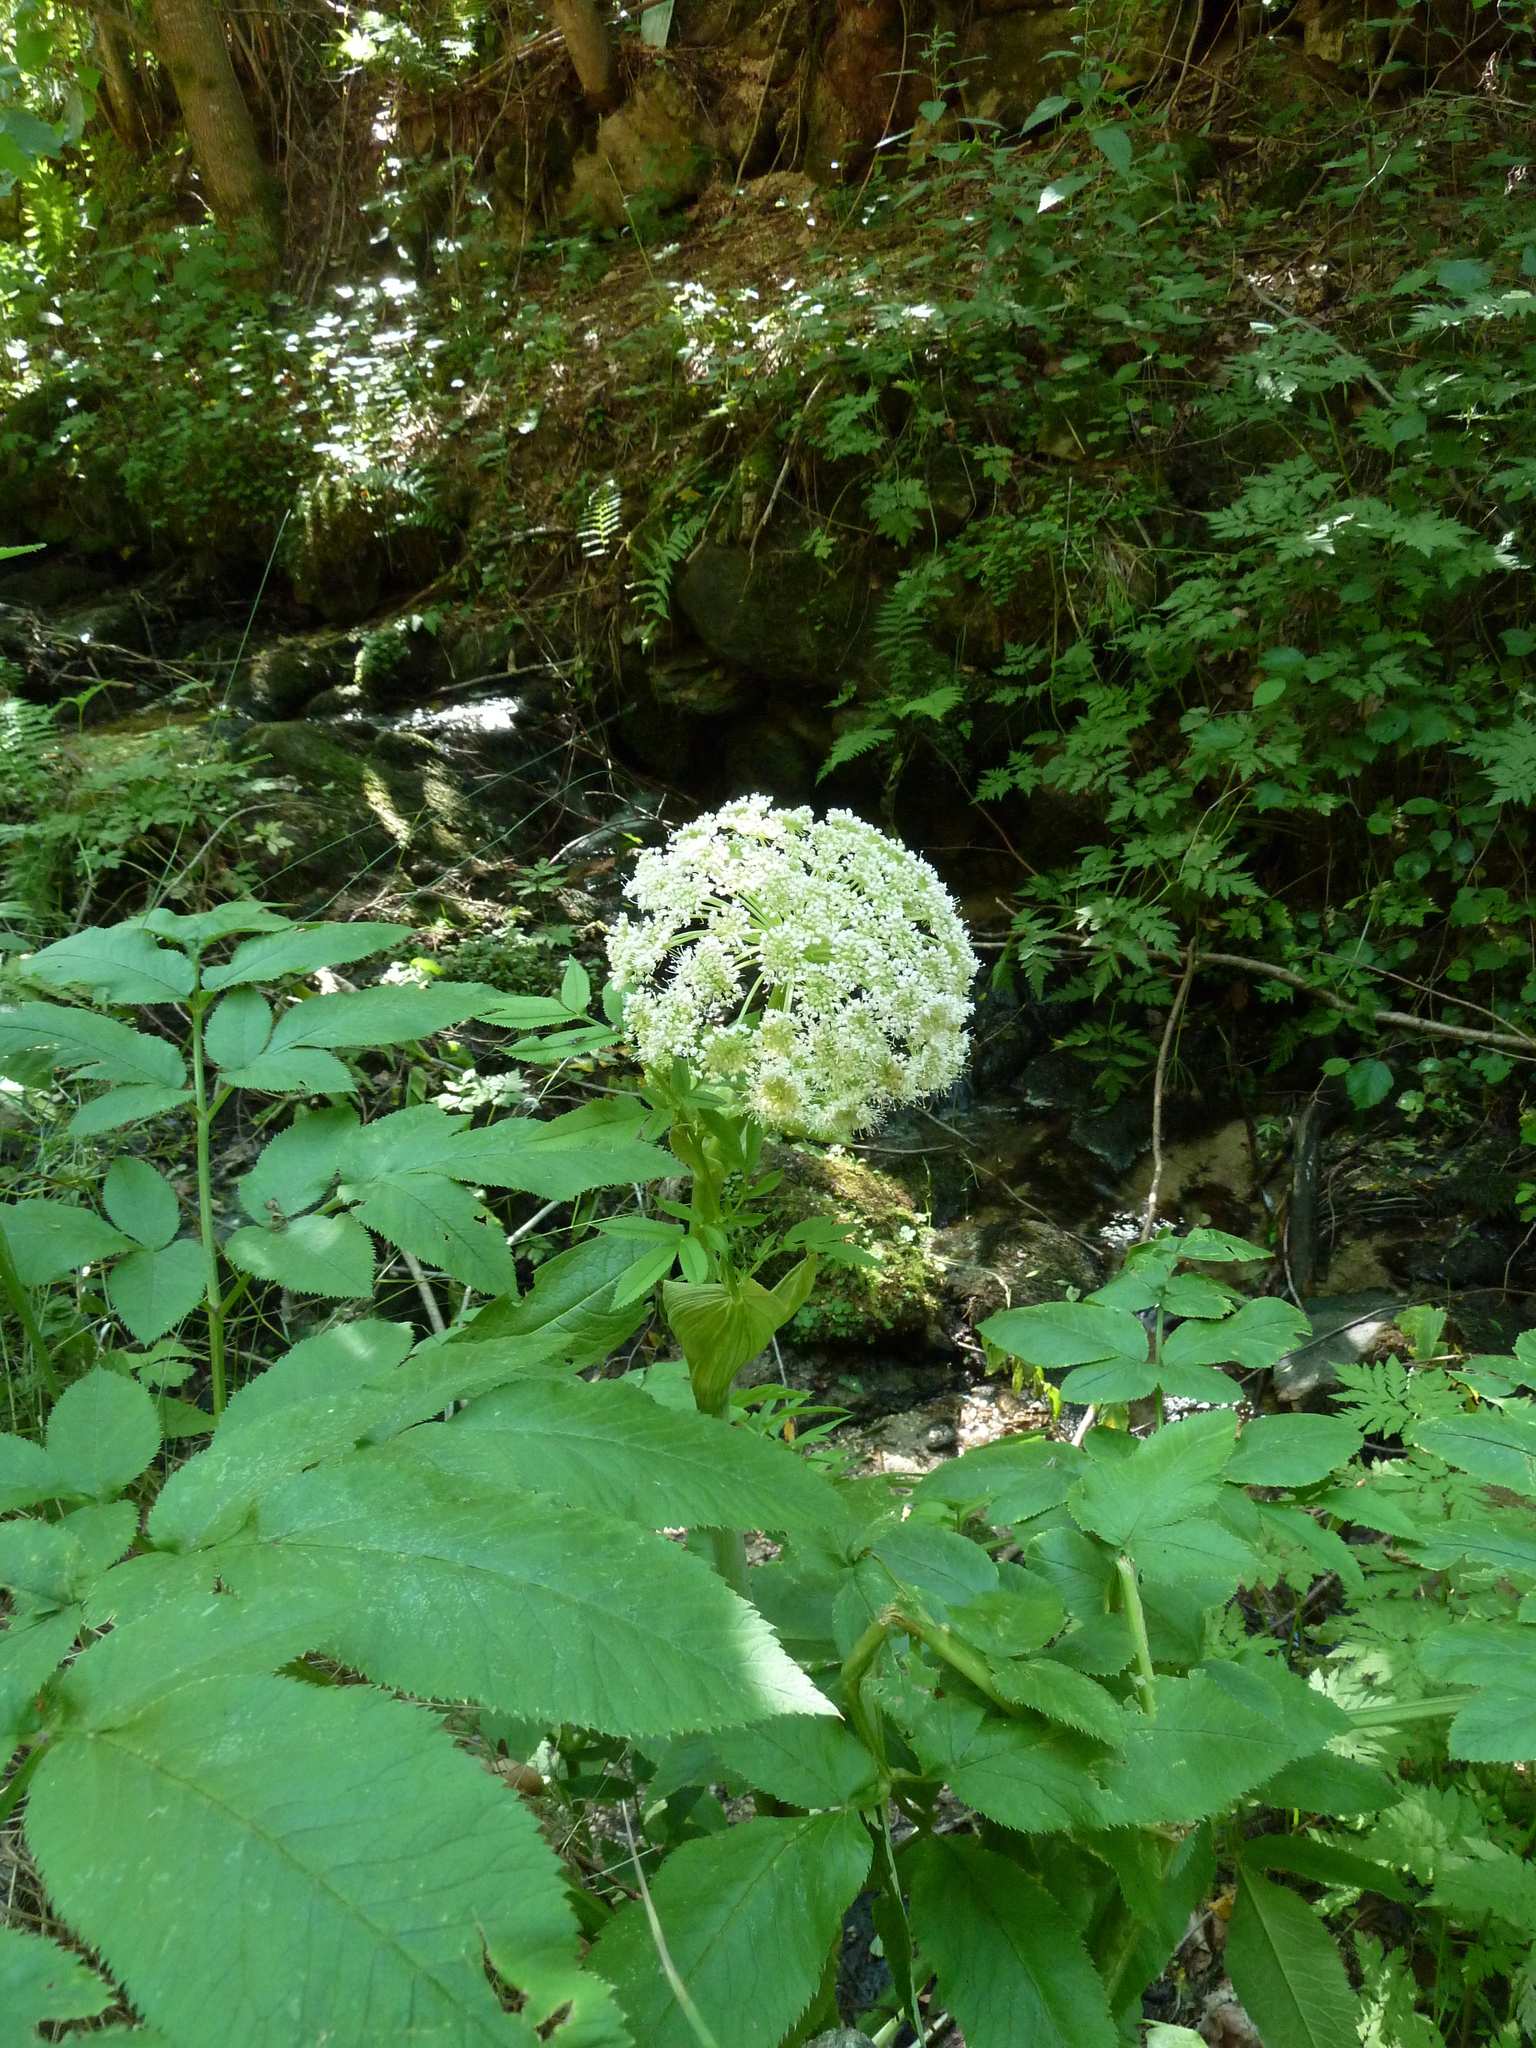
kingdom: Plantae
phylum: Tracheophyta
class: Magnoliopsida
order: Apiales
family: Apiaceae
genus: Angelica
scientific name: Angelica archangelica
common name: Garden angelica
